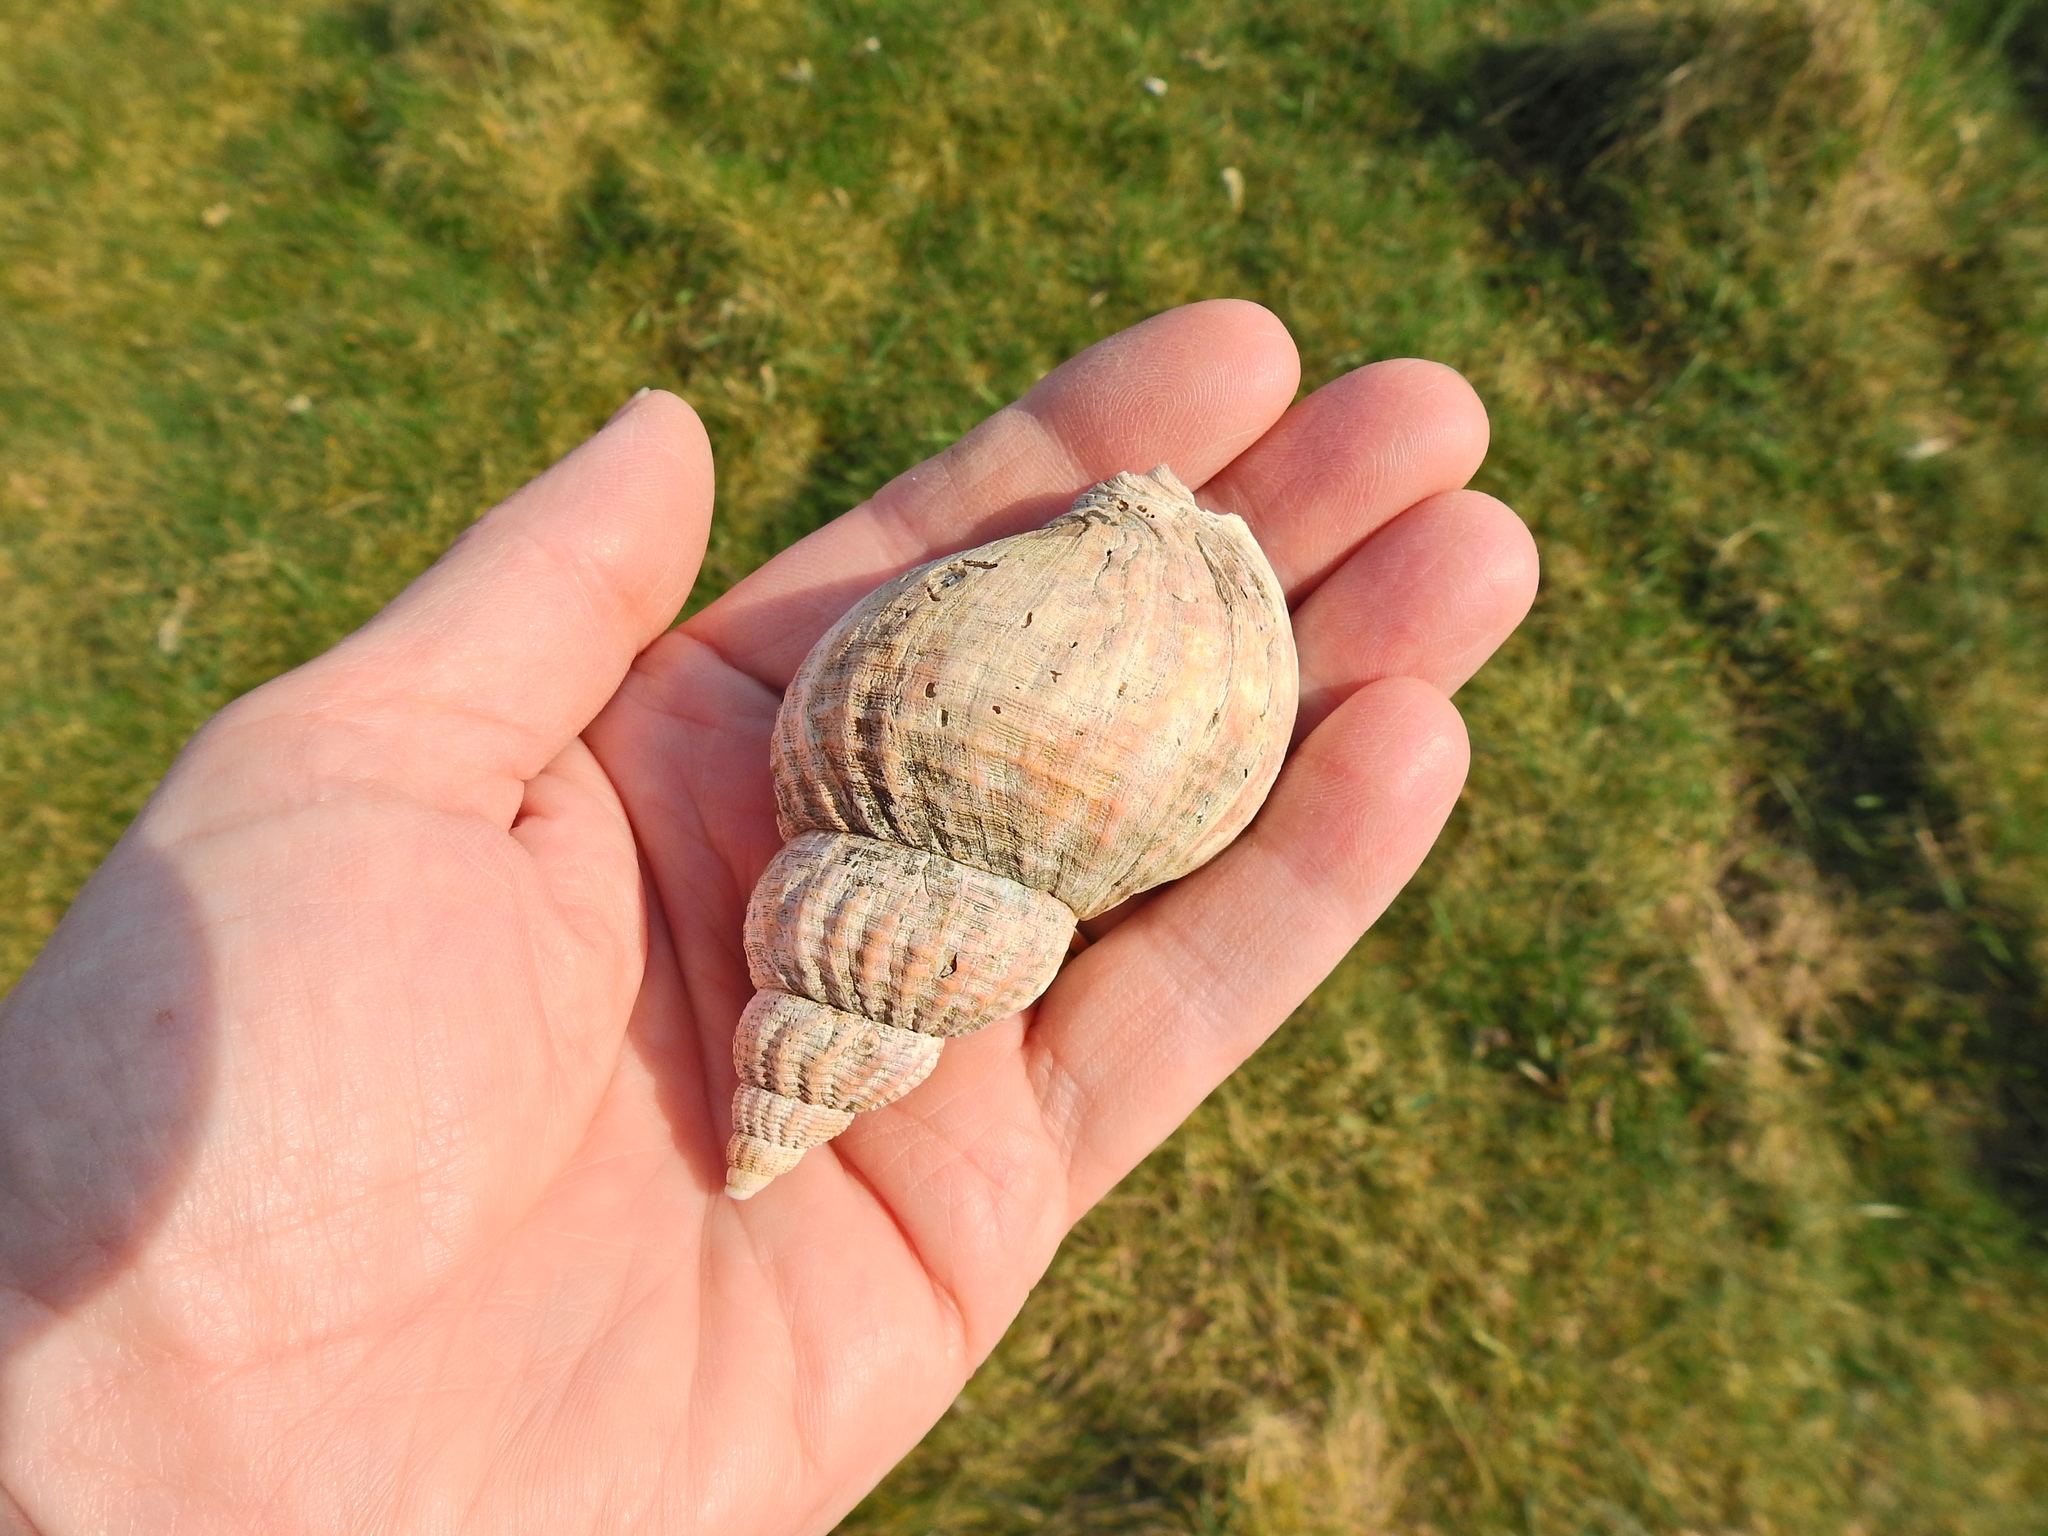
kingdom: Animalia
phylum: Mollusca
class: Gastropoda
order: Neogastropoda
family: Buccinidae
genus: Buccinum
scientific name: Buccinum undatum
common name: Common whelk
